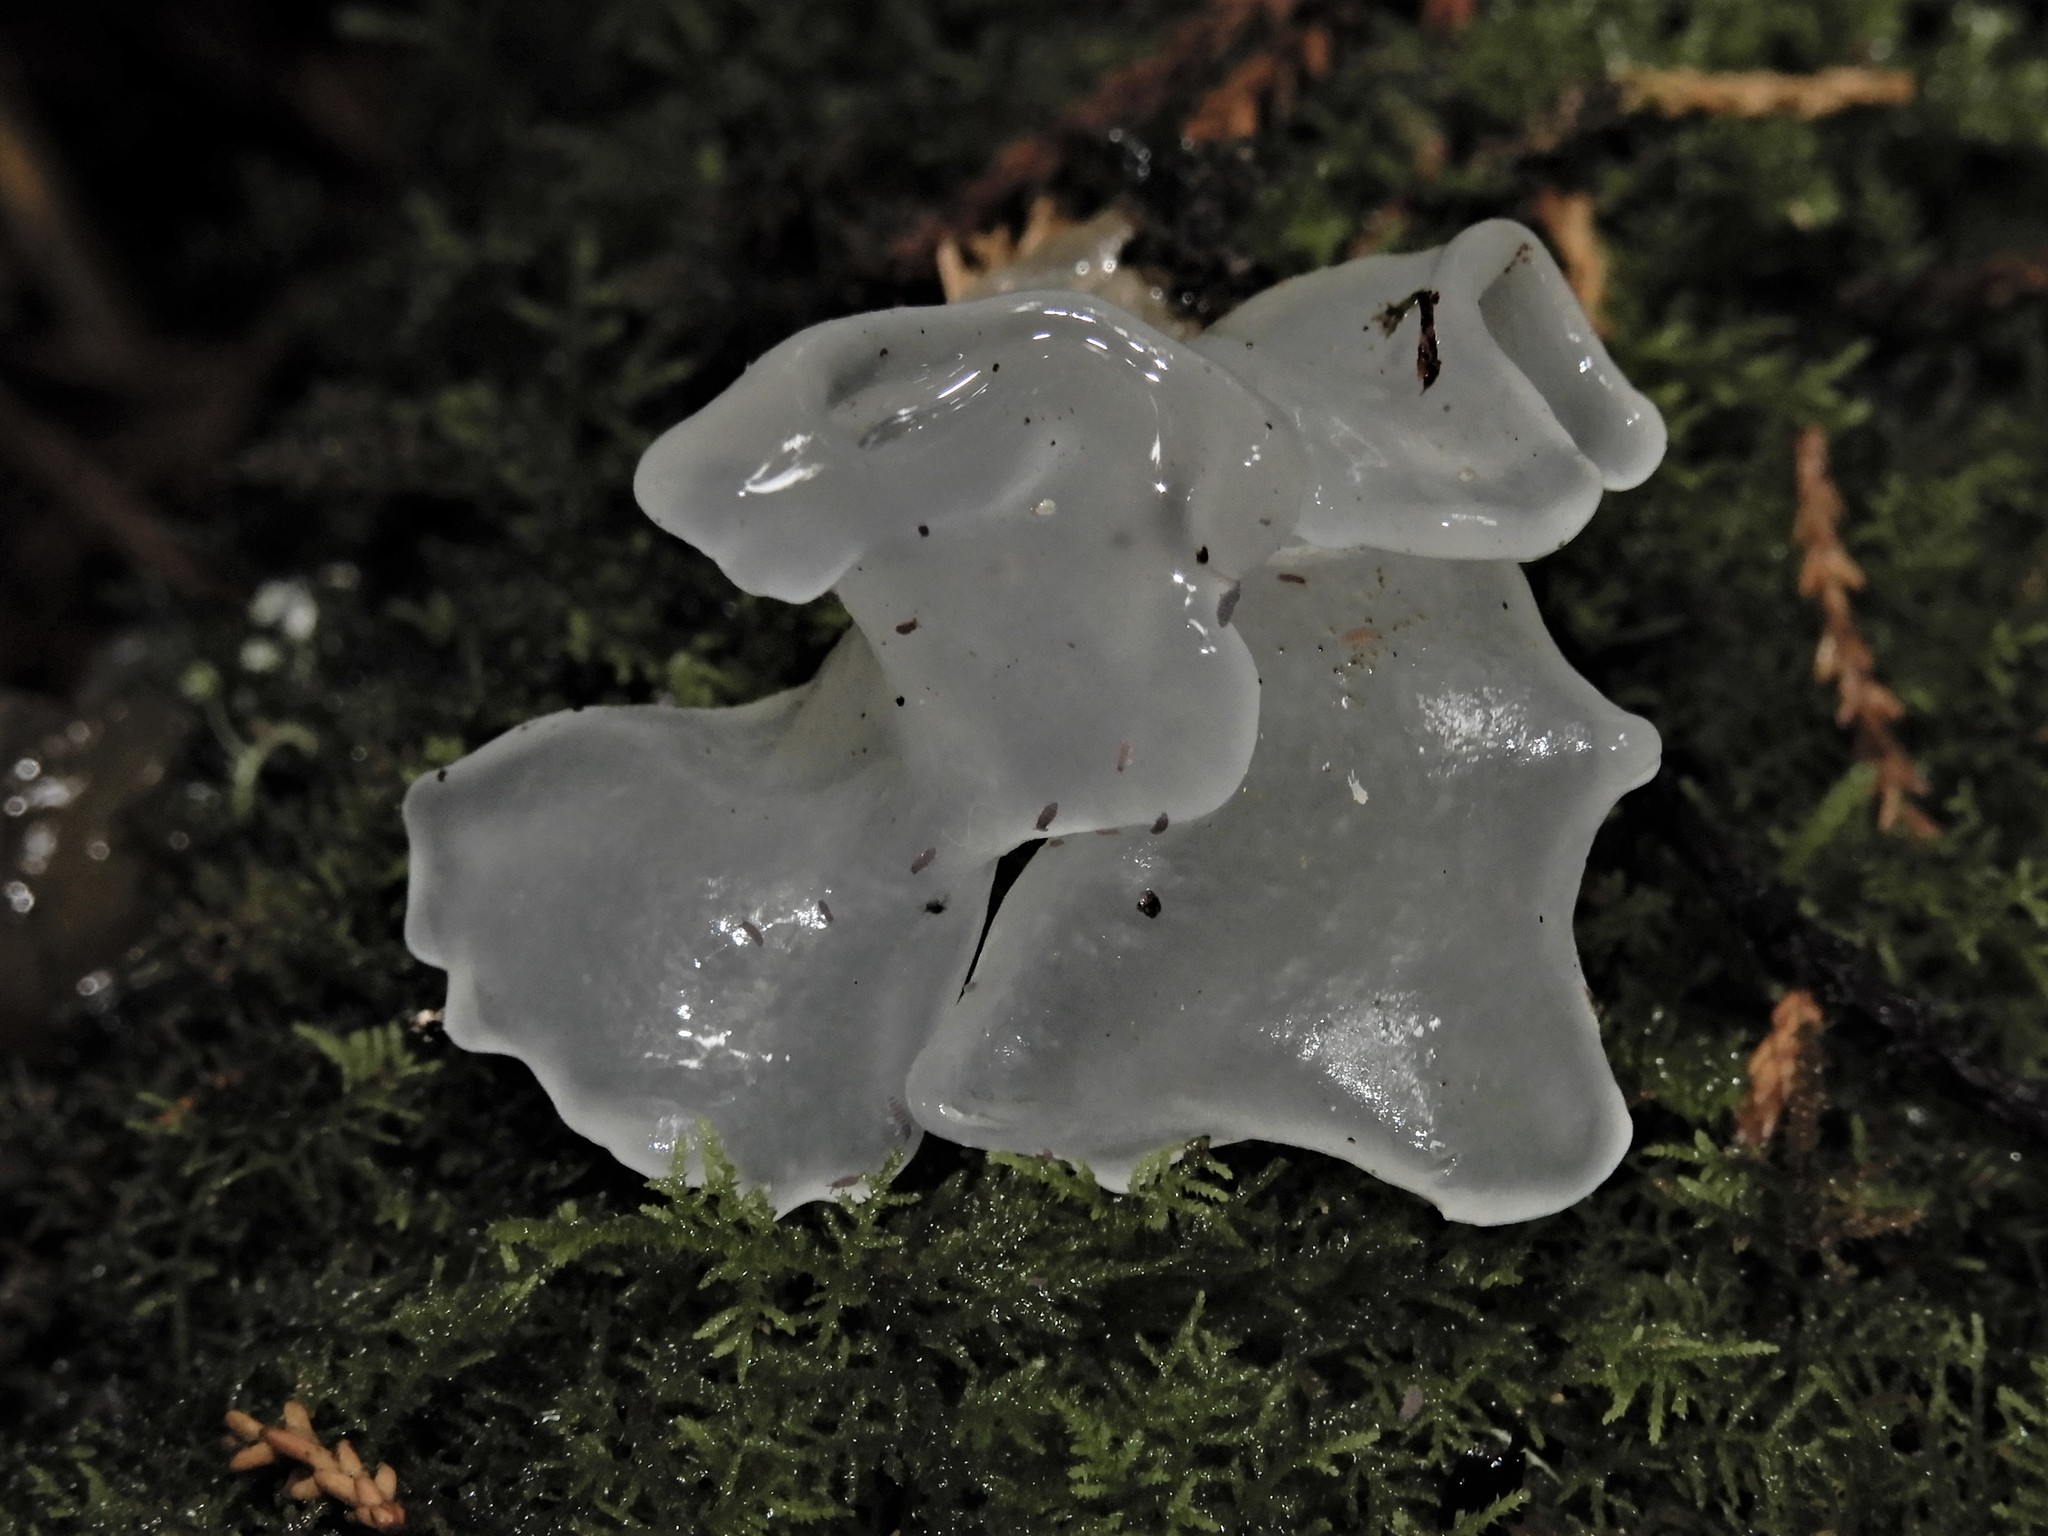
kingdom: Fungi
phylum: Basidiomycota
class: Tremellomycetes
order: Tremellales
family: Tremellaceae
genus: Tremella
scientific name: Tremella fuciformis
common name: Snow fungus
